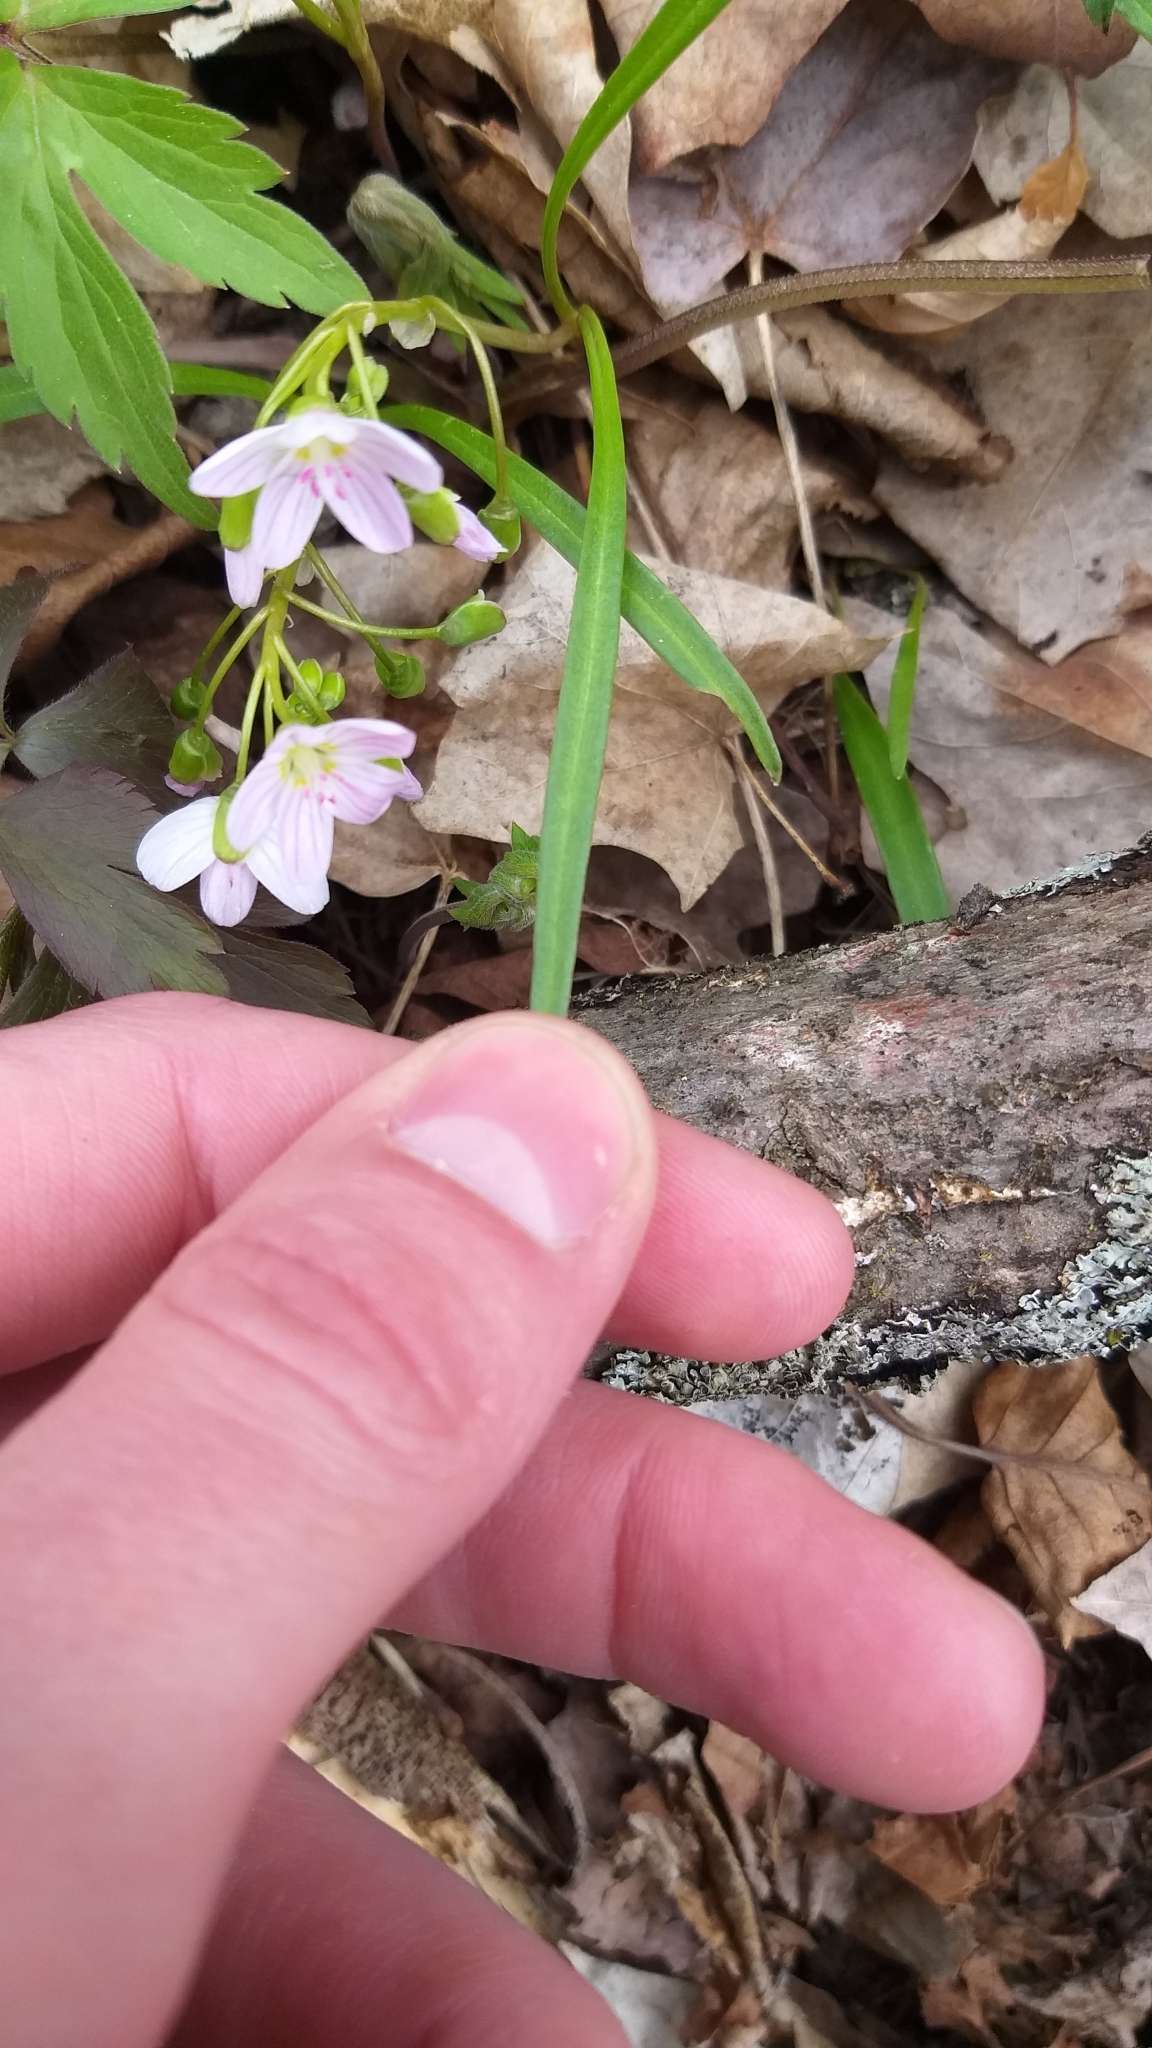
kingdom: Plantae
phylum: Tracheophyta
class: Magnoliopsida
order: Caryophyllales
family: Montiaceae
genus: Claytonia
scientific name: Claytonia virginica
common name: Virginia springbeauty
